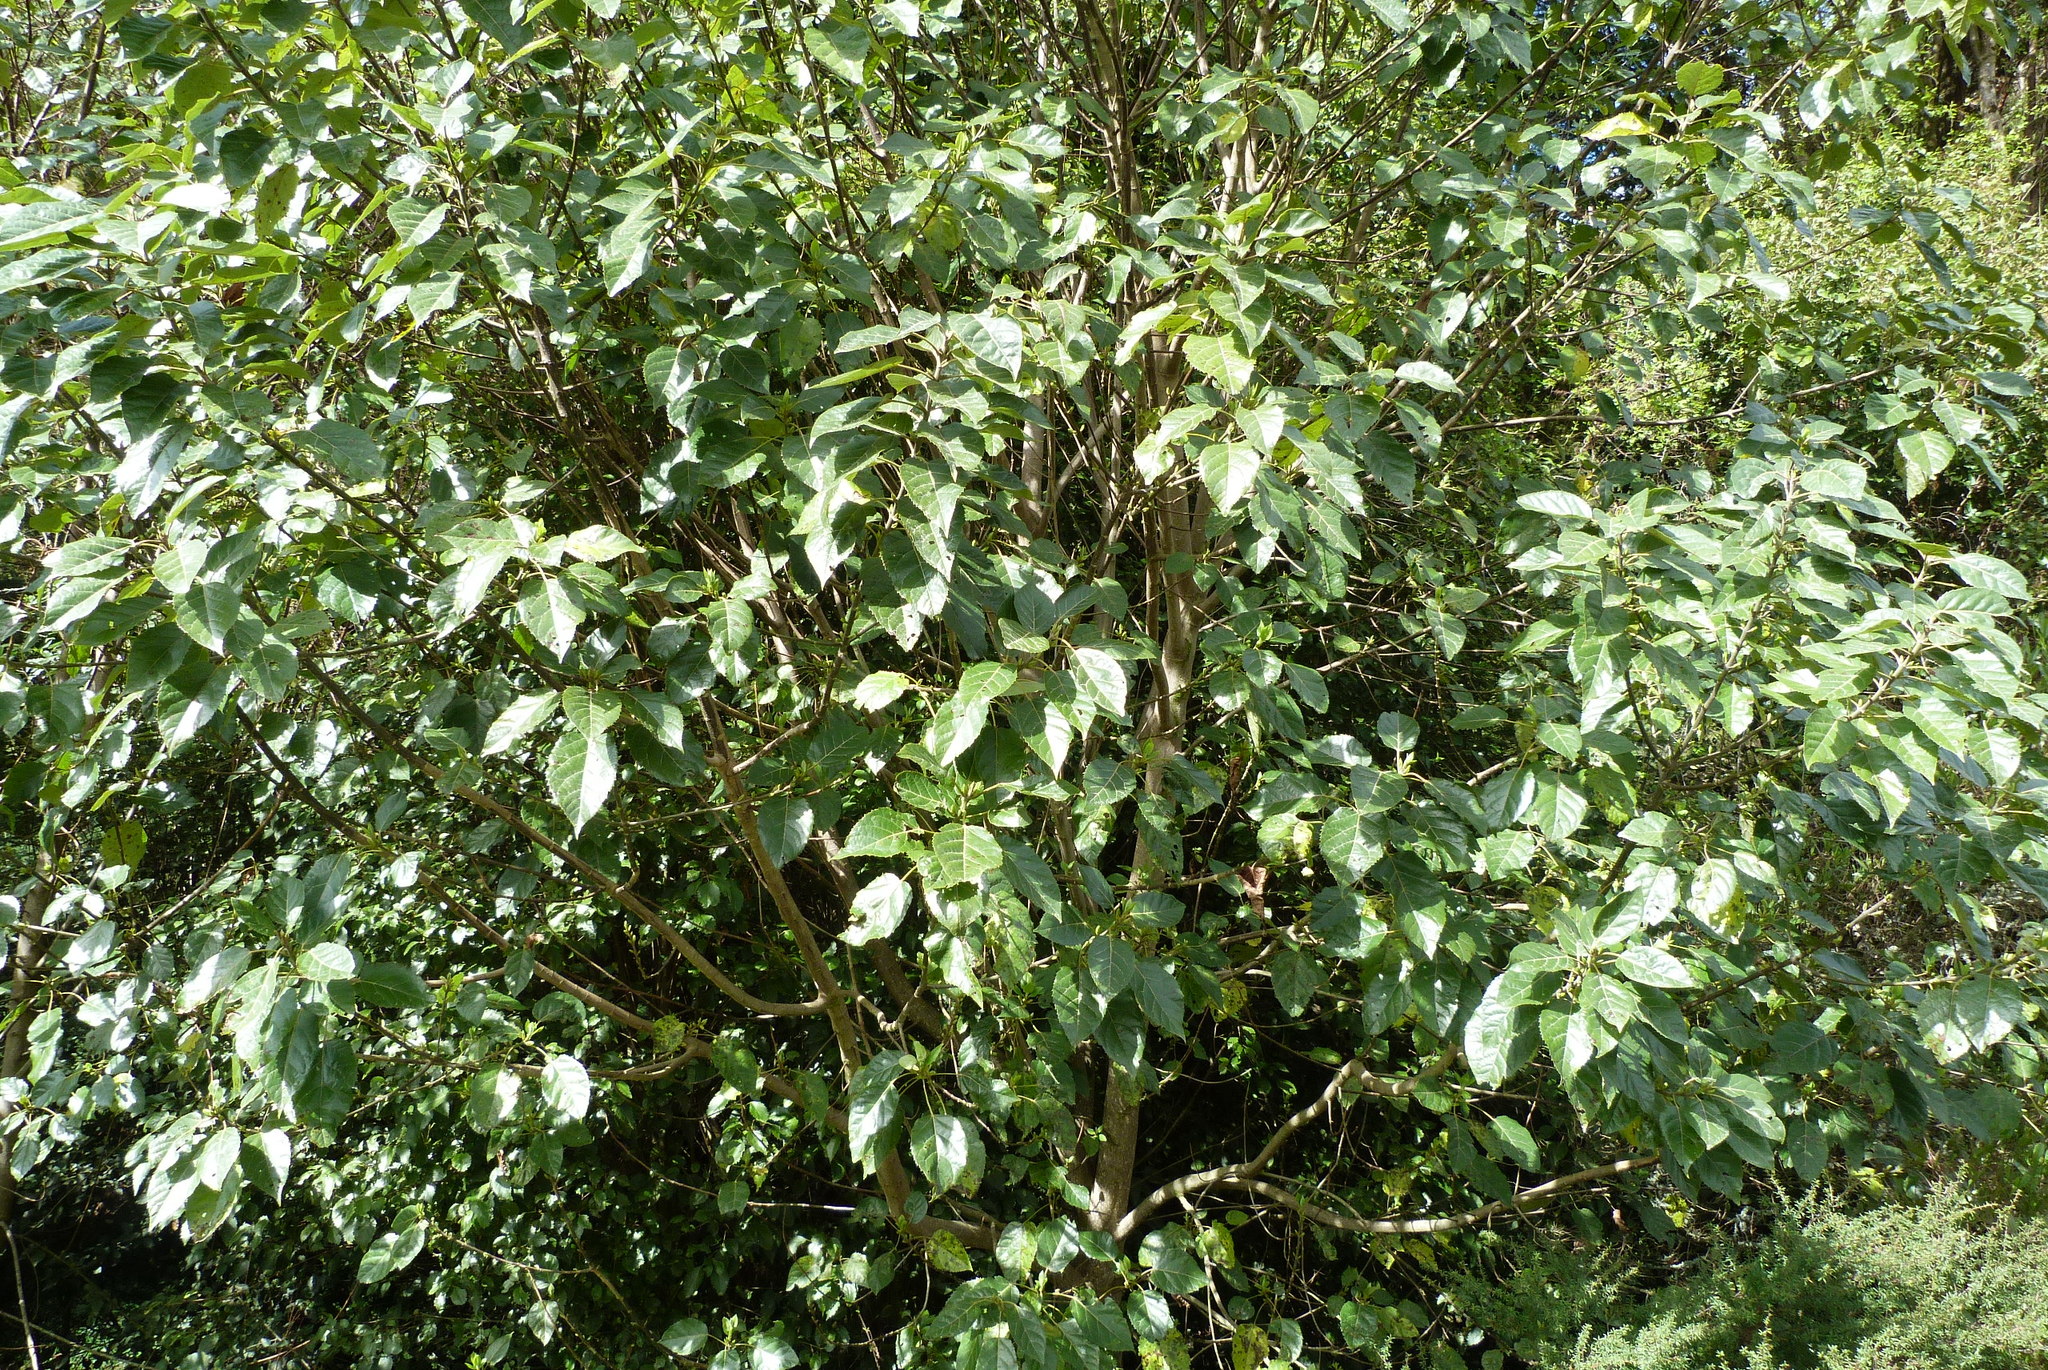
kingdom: Plantae
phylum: Tracheophyta
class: Magnoliopsida
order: Oxalidales
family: Elaeocarpaceae
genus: Aristotelia
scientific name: Aristotelia serrata
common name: New zealand wineberry
